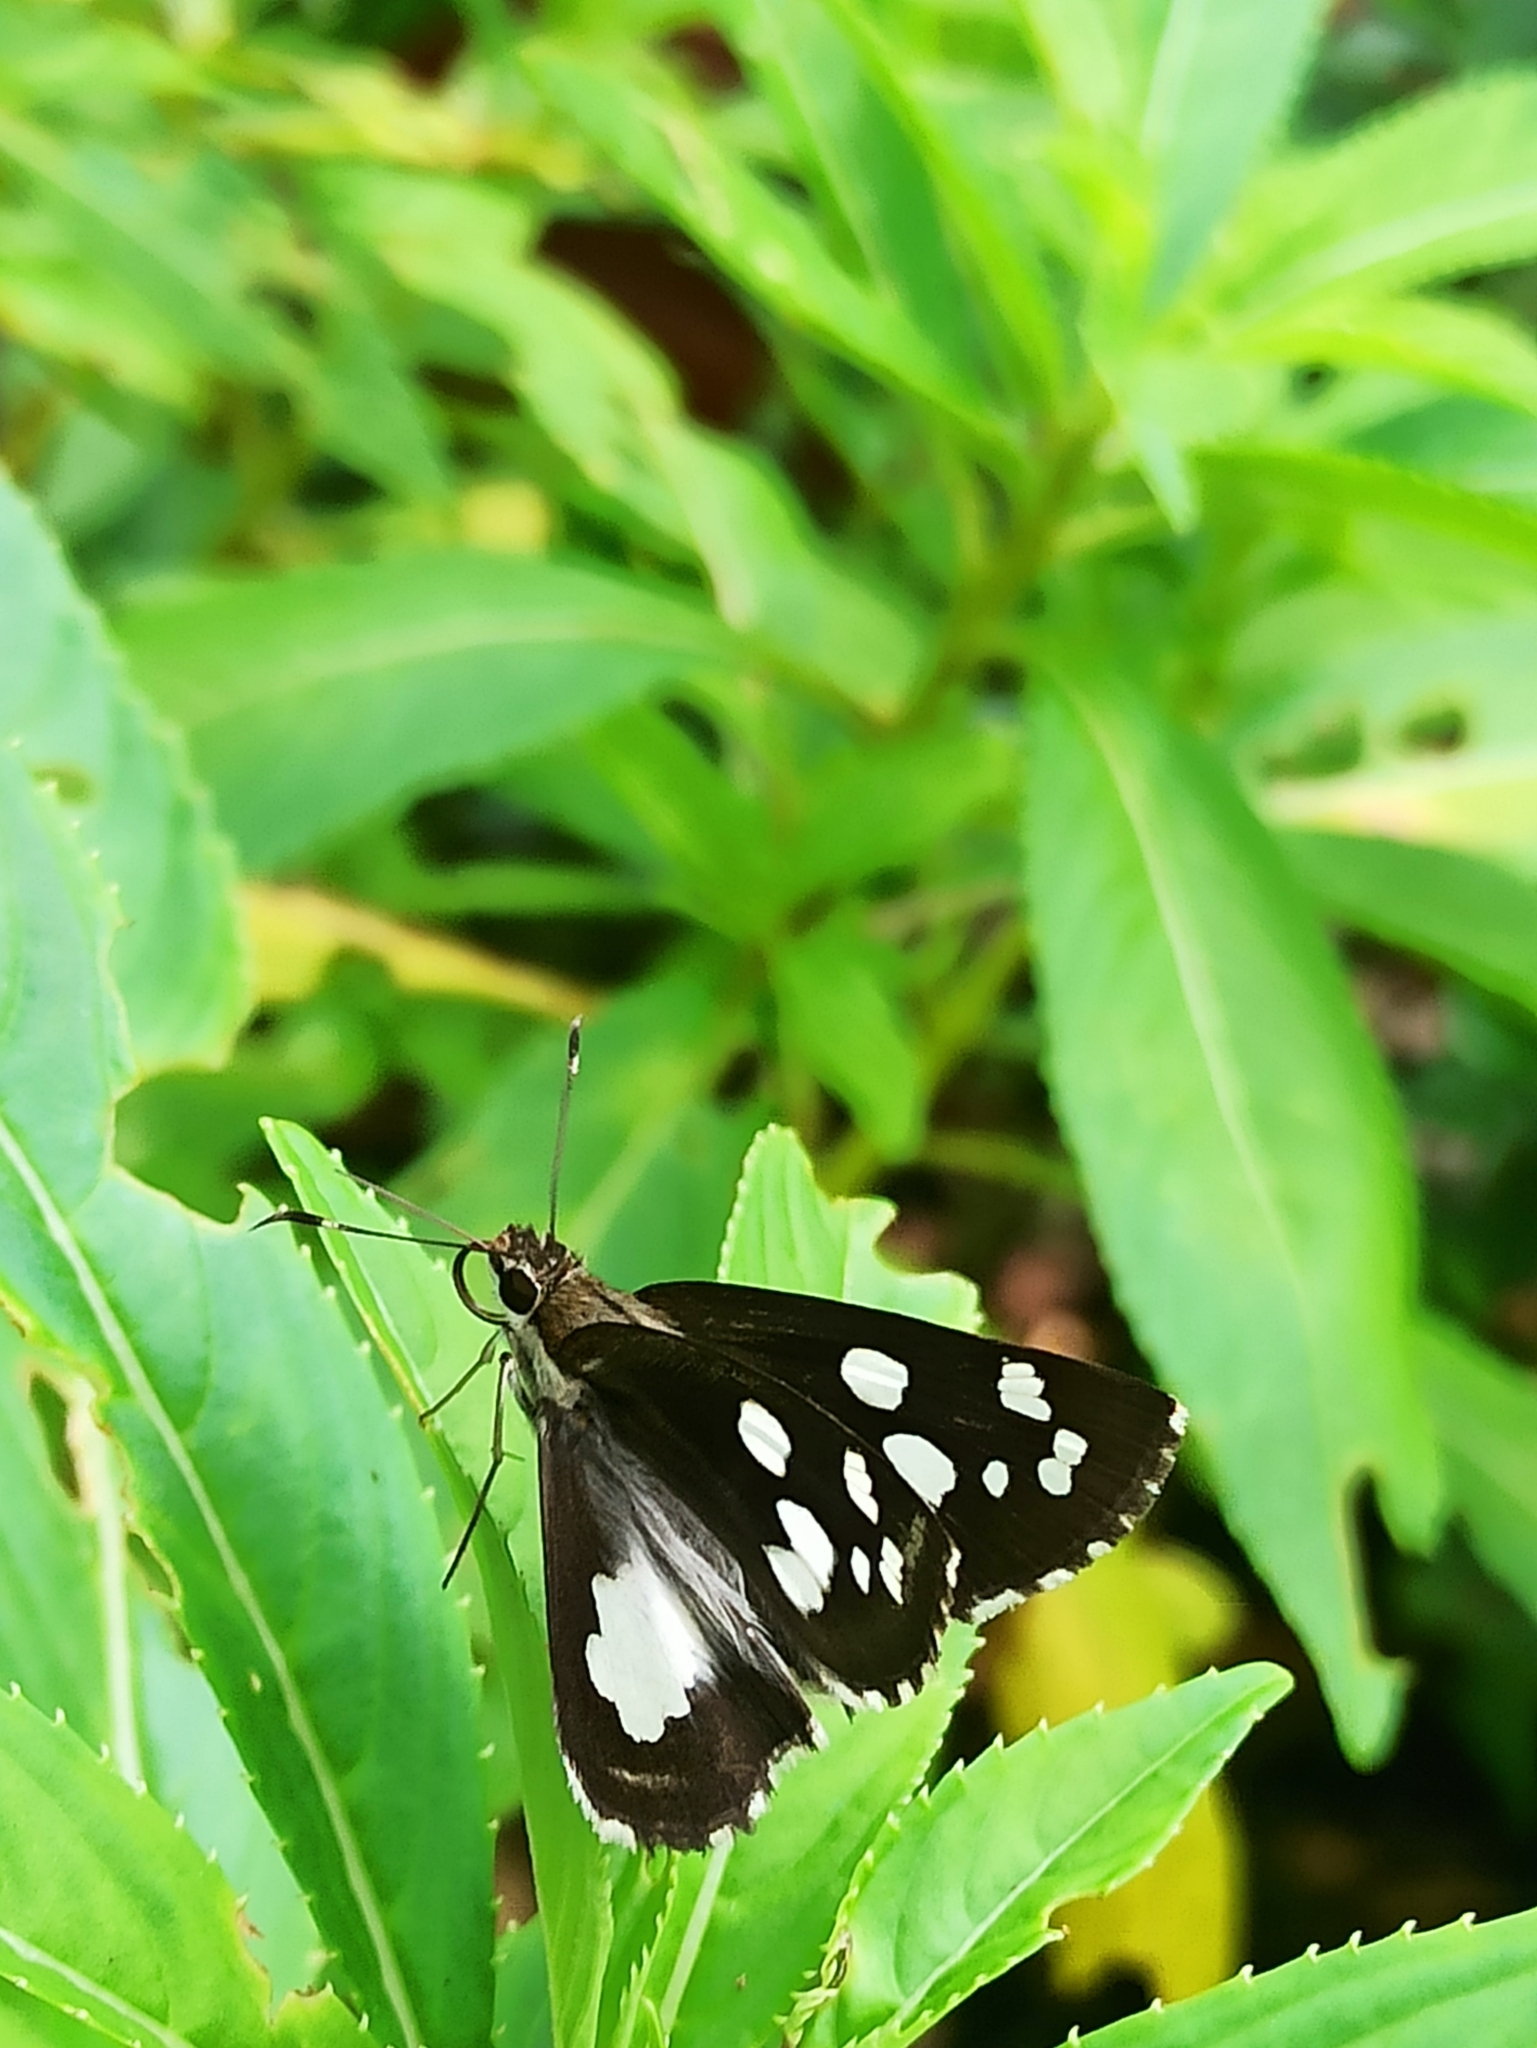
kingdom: Animalia
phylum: Arthropoda
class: Insecta
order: Lepidoptera
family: Hesperiidae
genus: Udaspes
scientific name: Udaspes folus
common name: Grass demon
